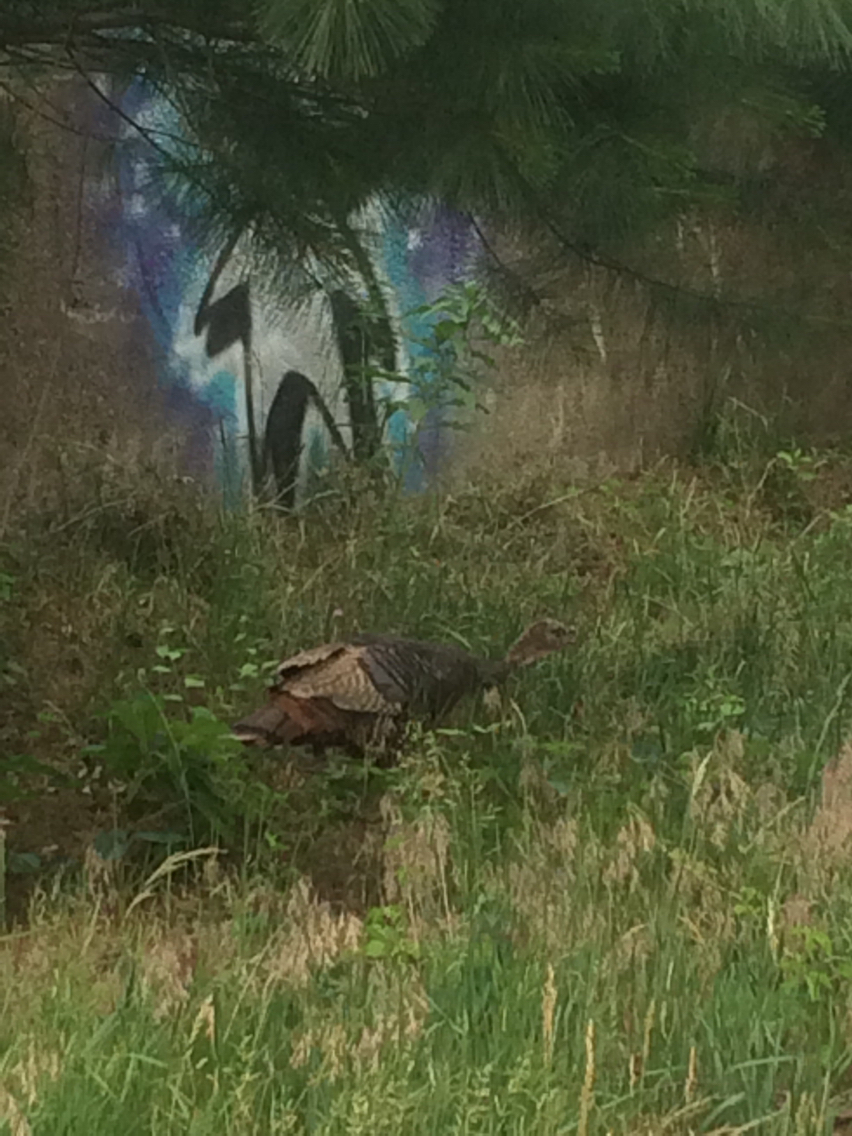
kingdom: Animalia
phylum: Chordata
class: Aves
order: Galliformes
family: Phasianidae
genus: Meleagris
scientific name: Meleagris gallopavo
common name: Wild turkey
